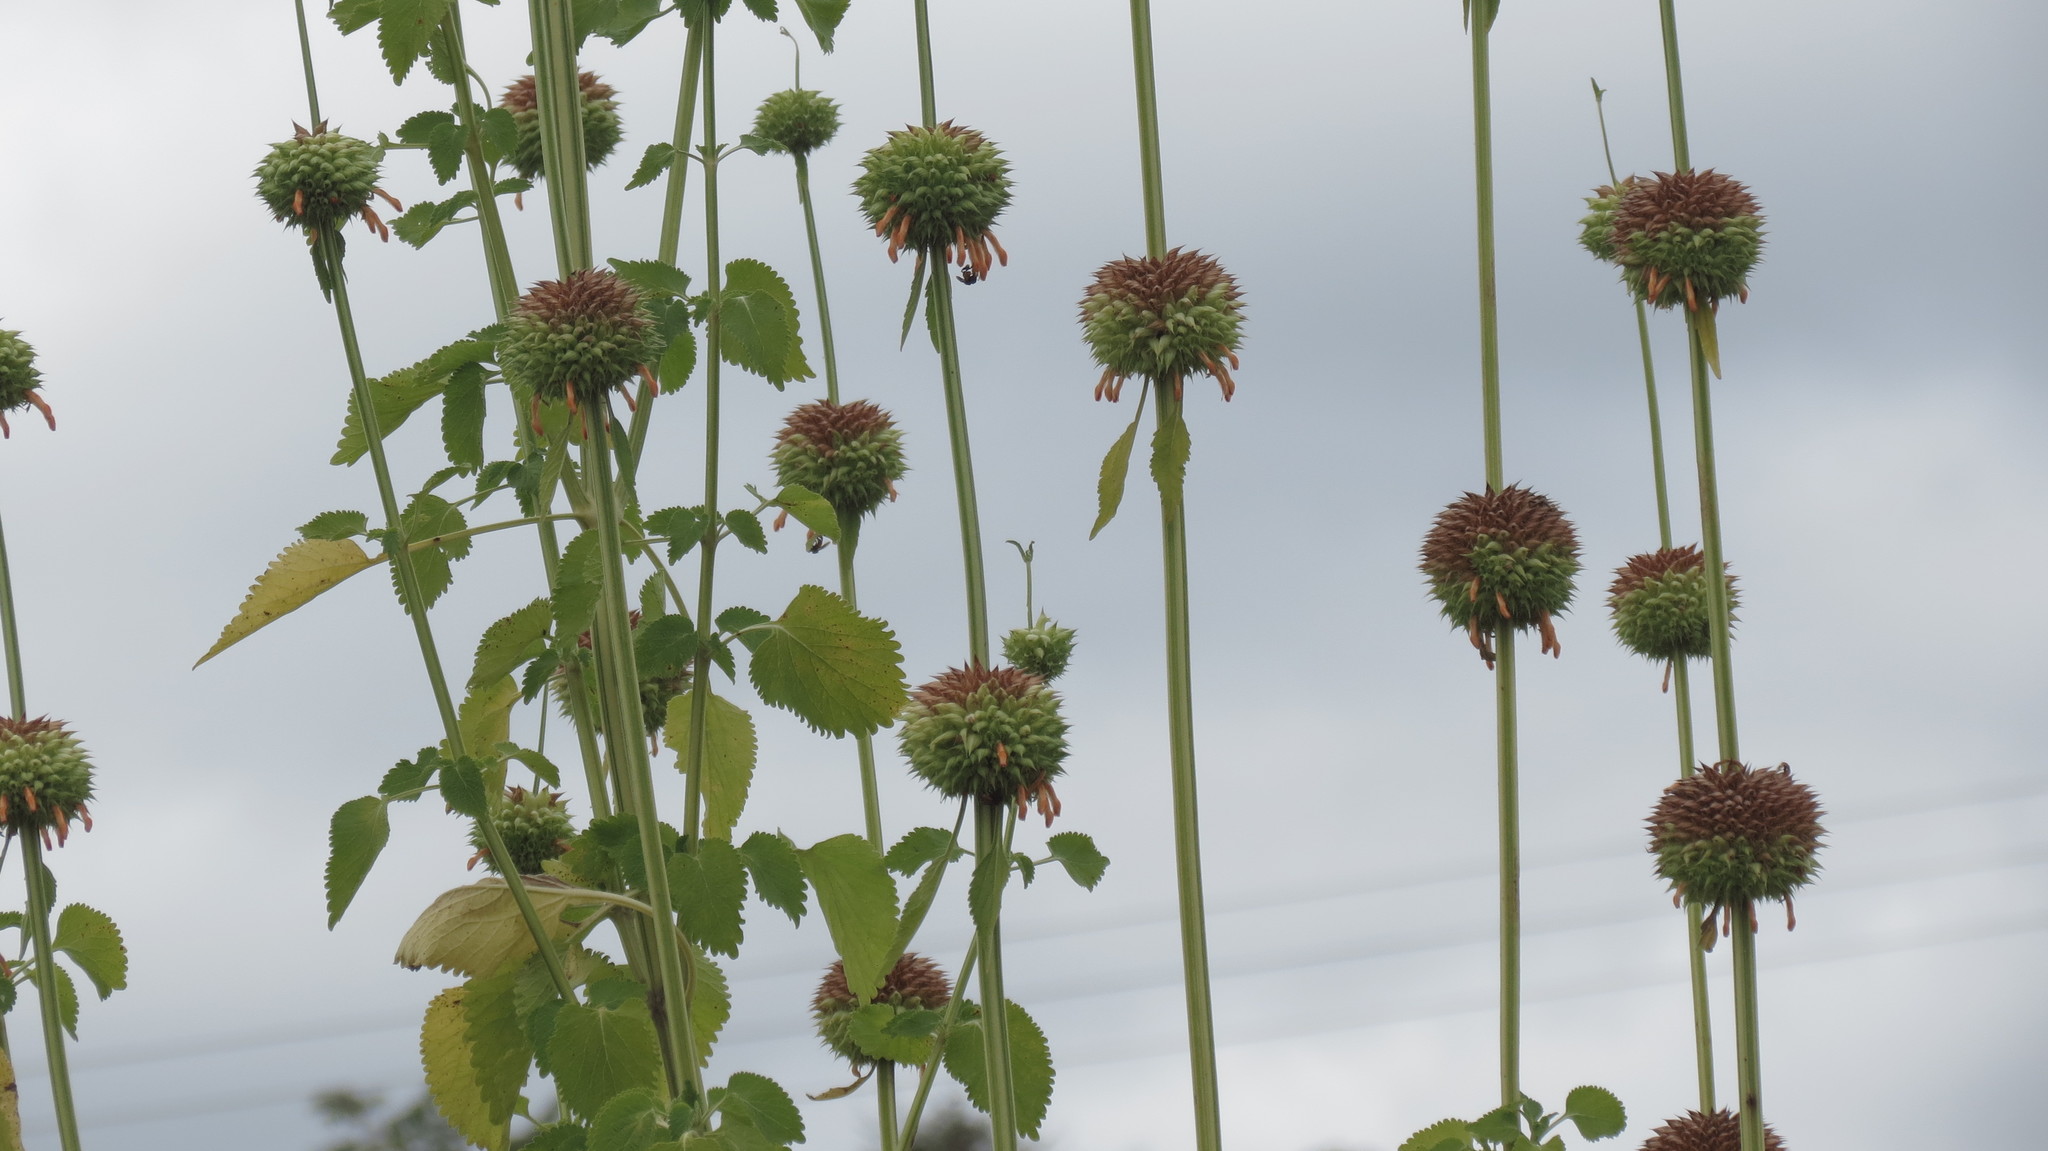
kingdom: Plantae
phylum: Tracheophyta
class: Magnoliopsida
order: Lamiales
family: Lamiaceae
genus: Leonotis
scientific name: Leonotis nepetifolia
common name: Christmas candlestick
